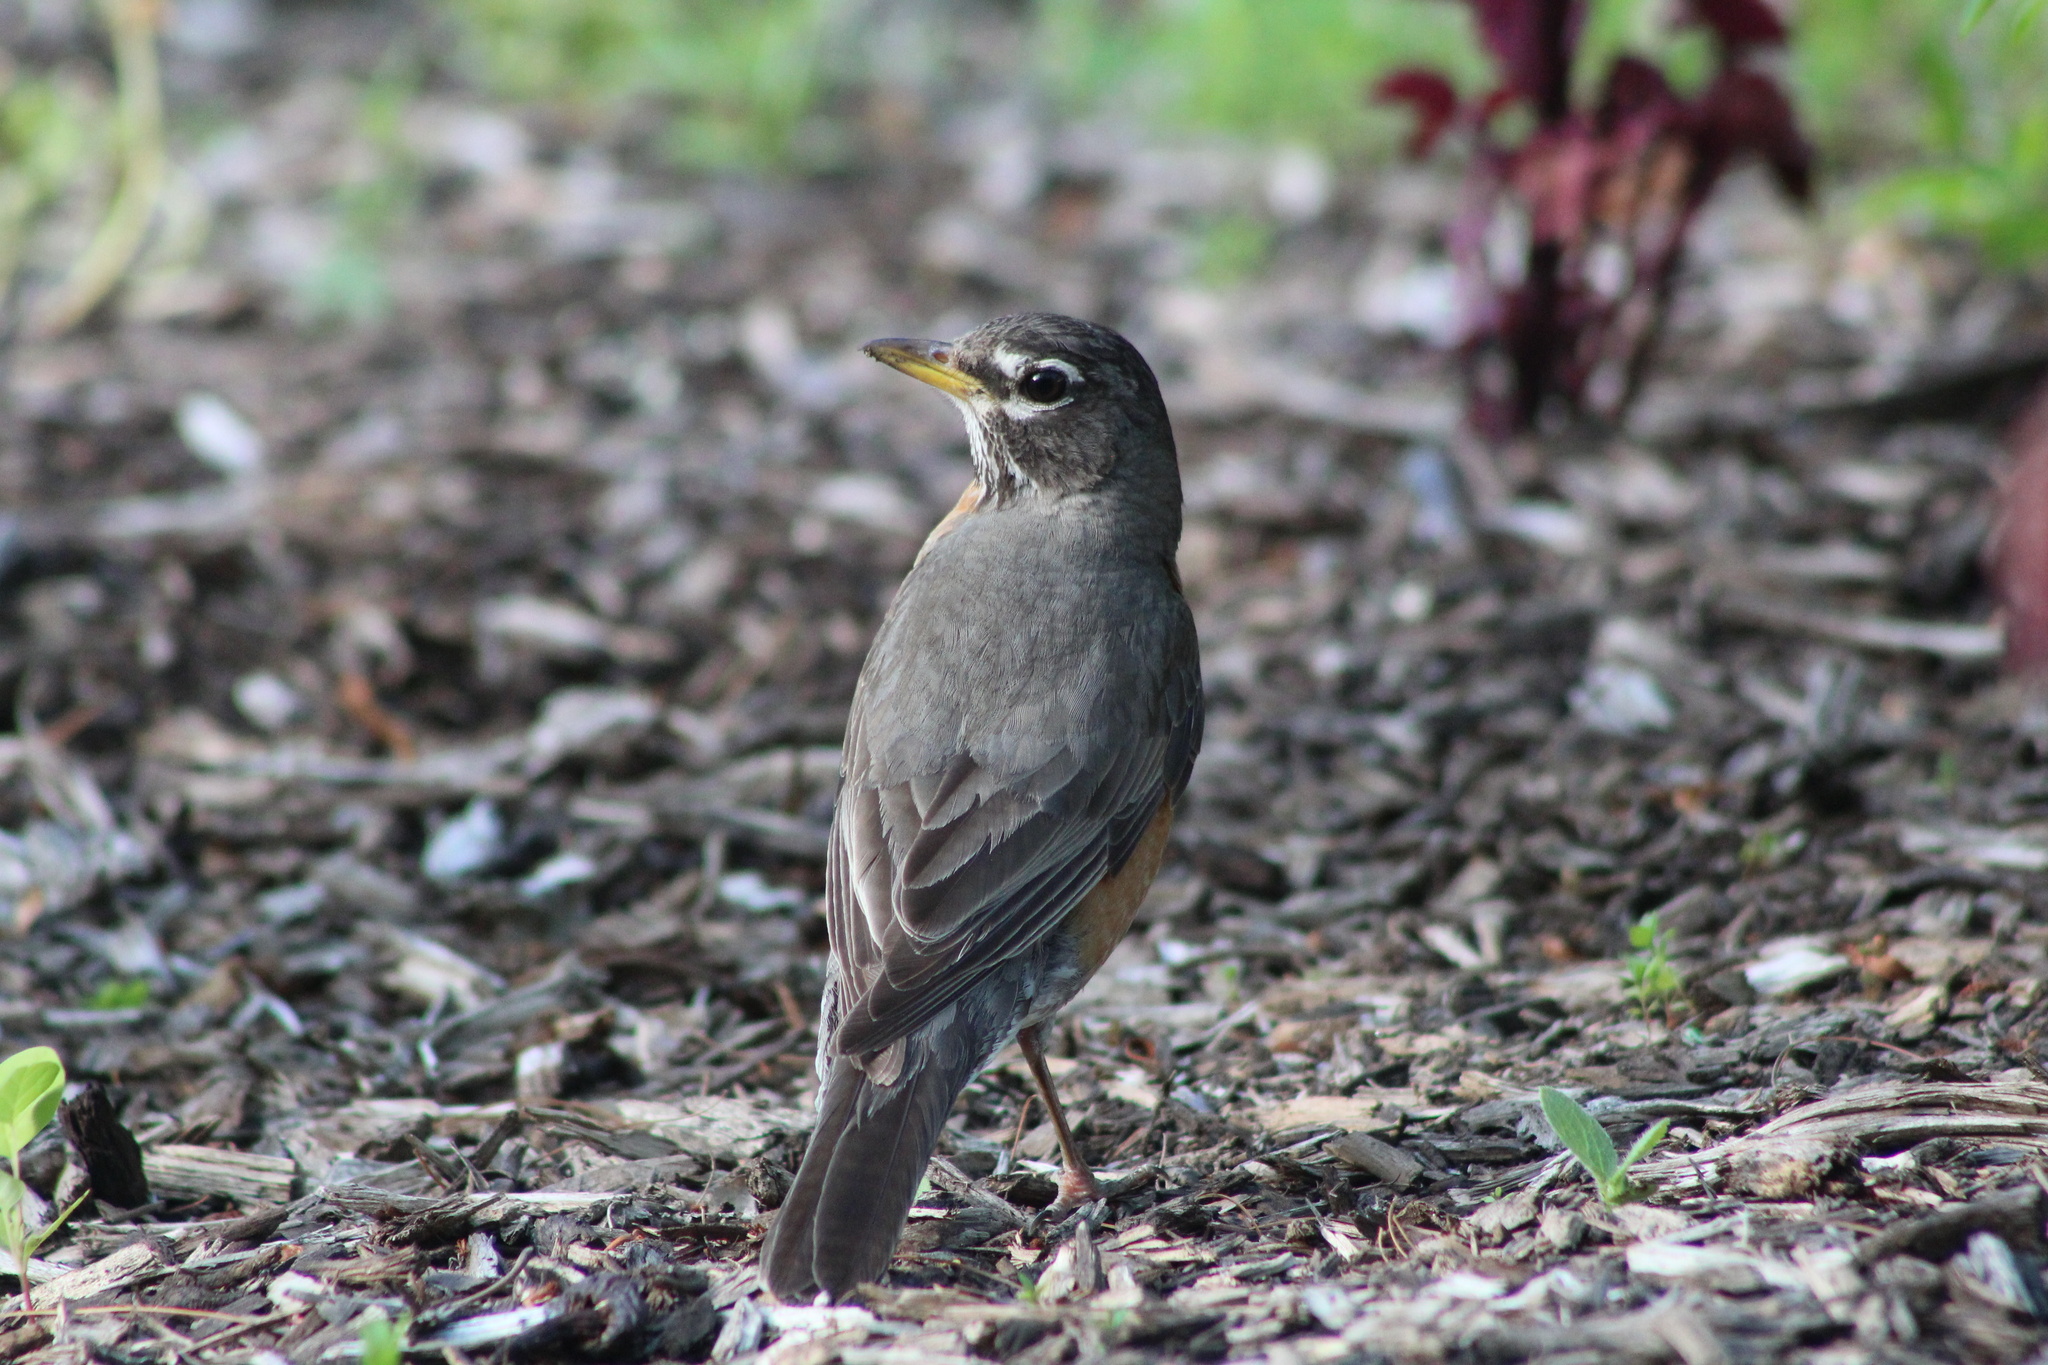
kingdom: Animalia
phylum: Chordata
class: Aves
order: Passeriformes
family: Turdidae
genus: Turdus
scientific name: Turdus migratorius
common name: American robin
